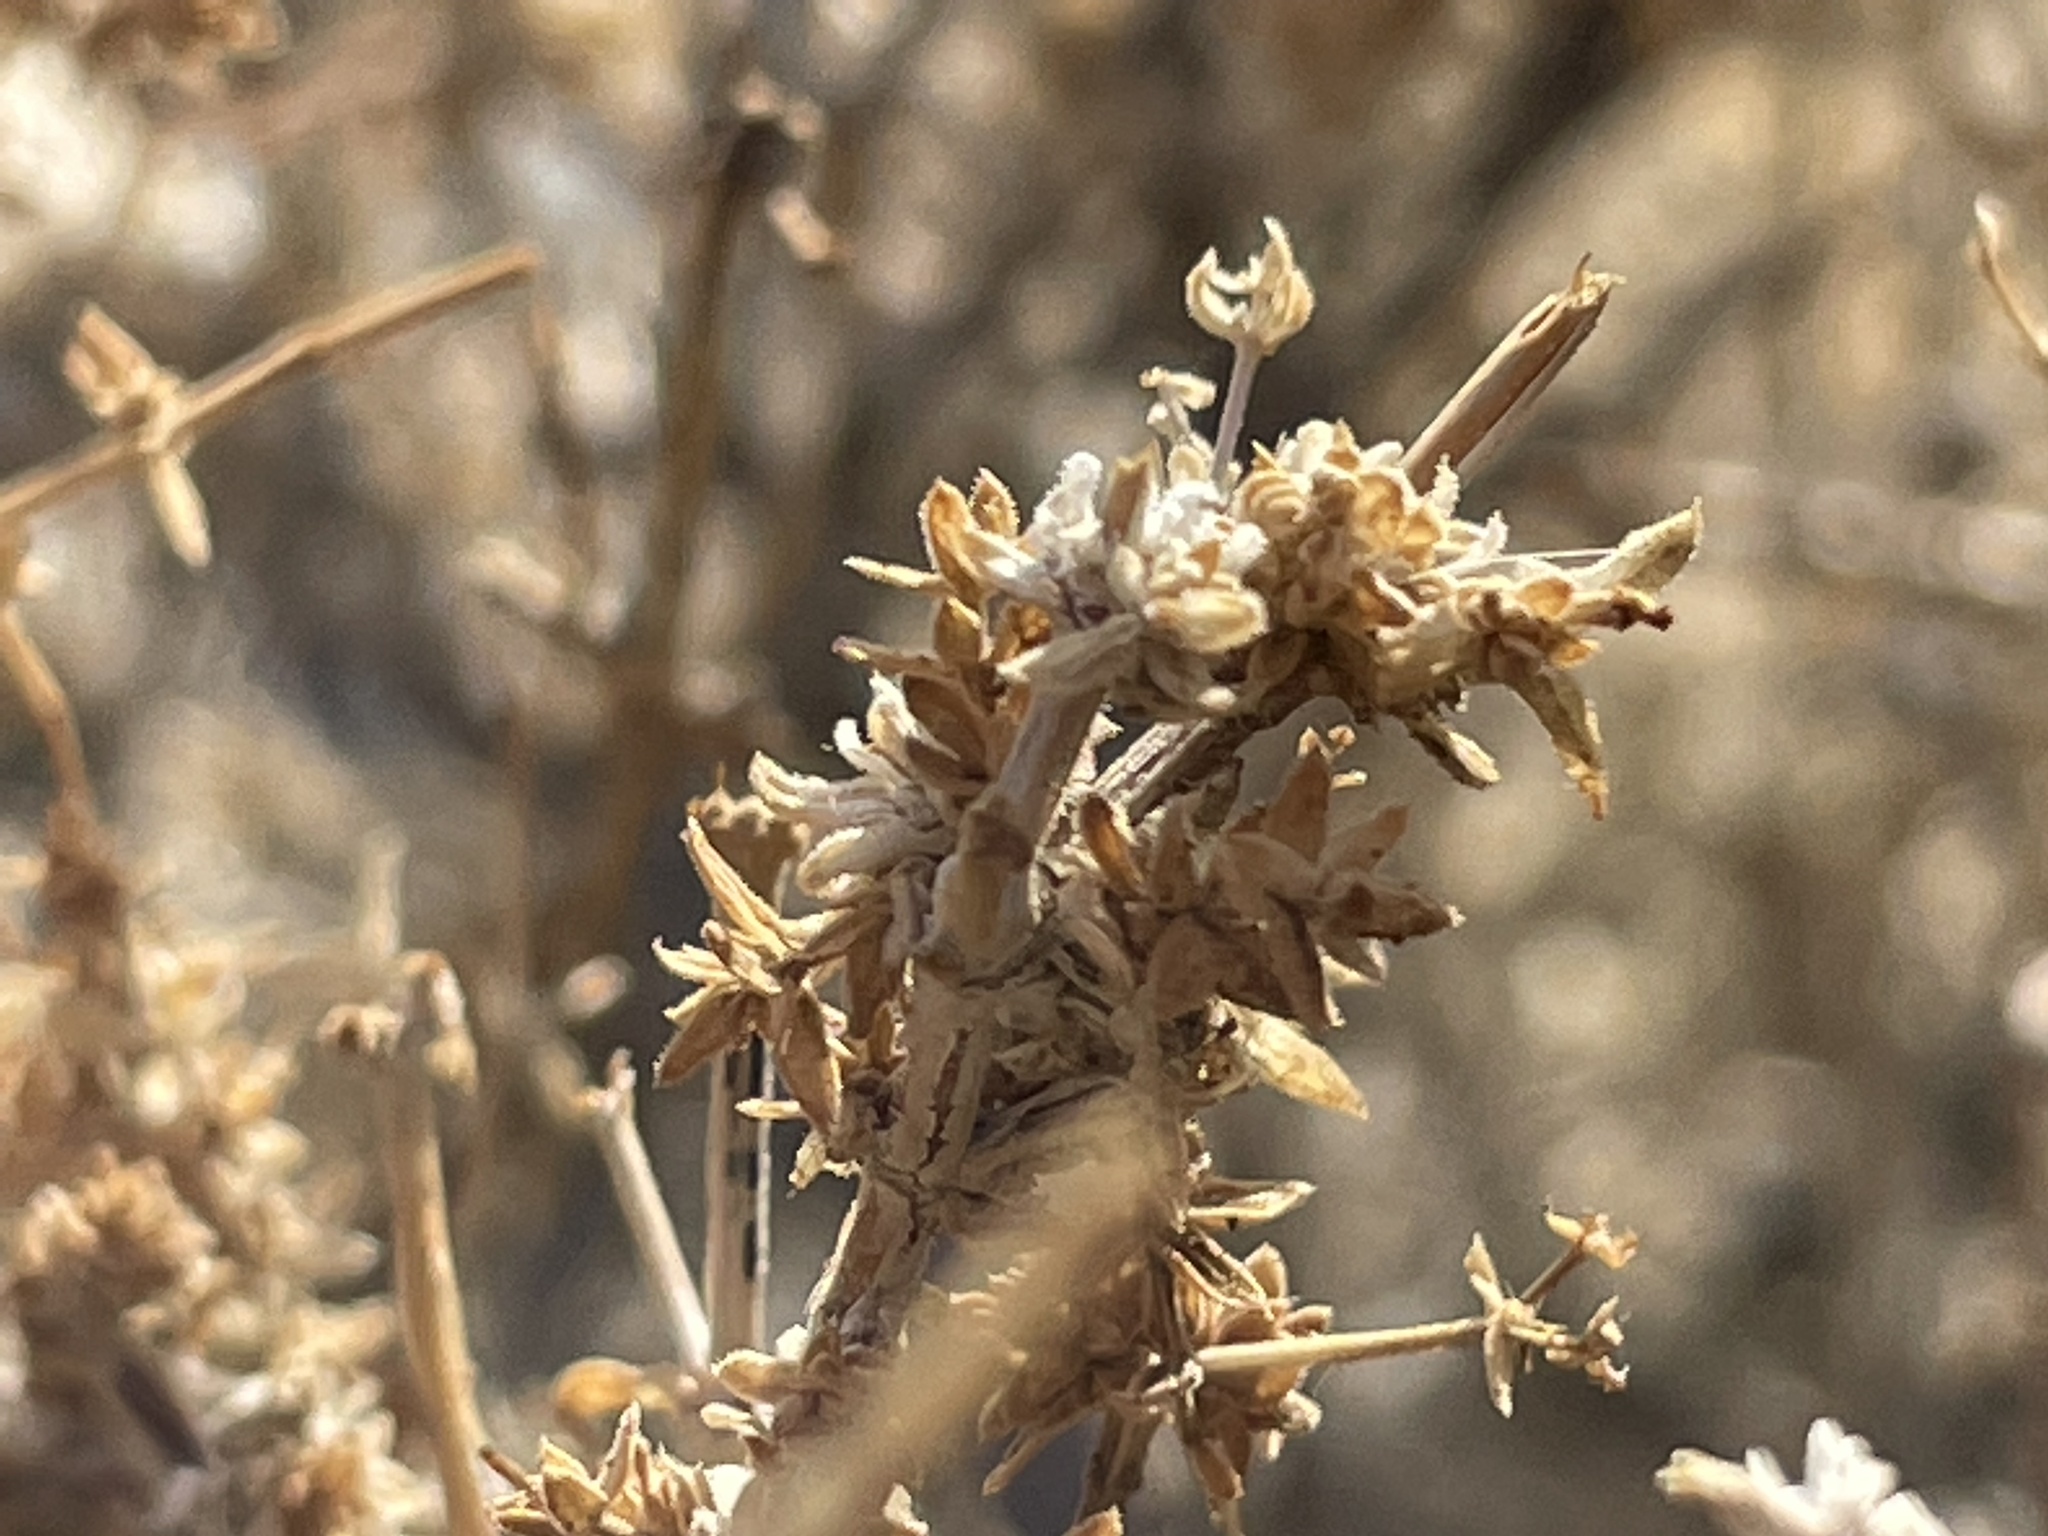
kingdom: Plantae
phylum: Tracheophyta
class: Magnoliopsida
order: Gentianales
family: Rubiaceae
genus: Galium
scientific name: Galium stellatum
